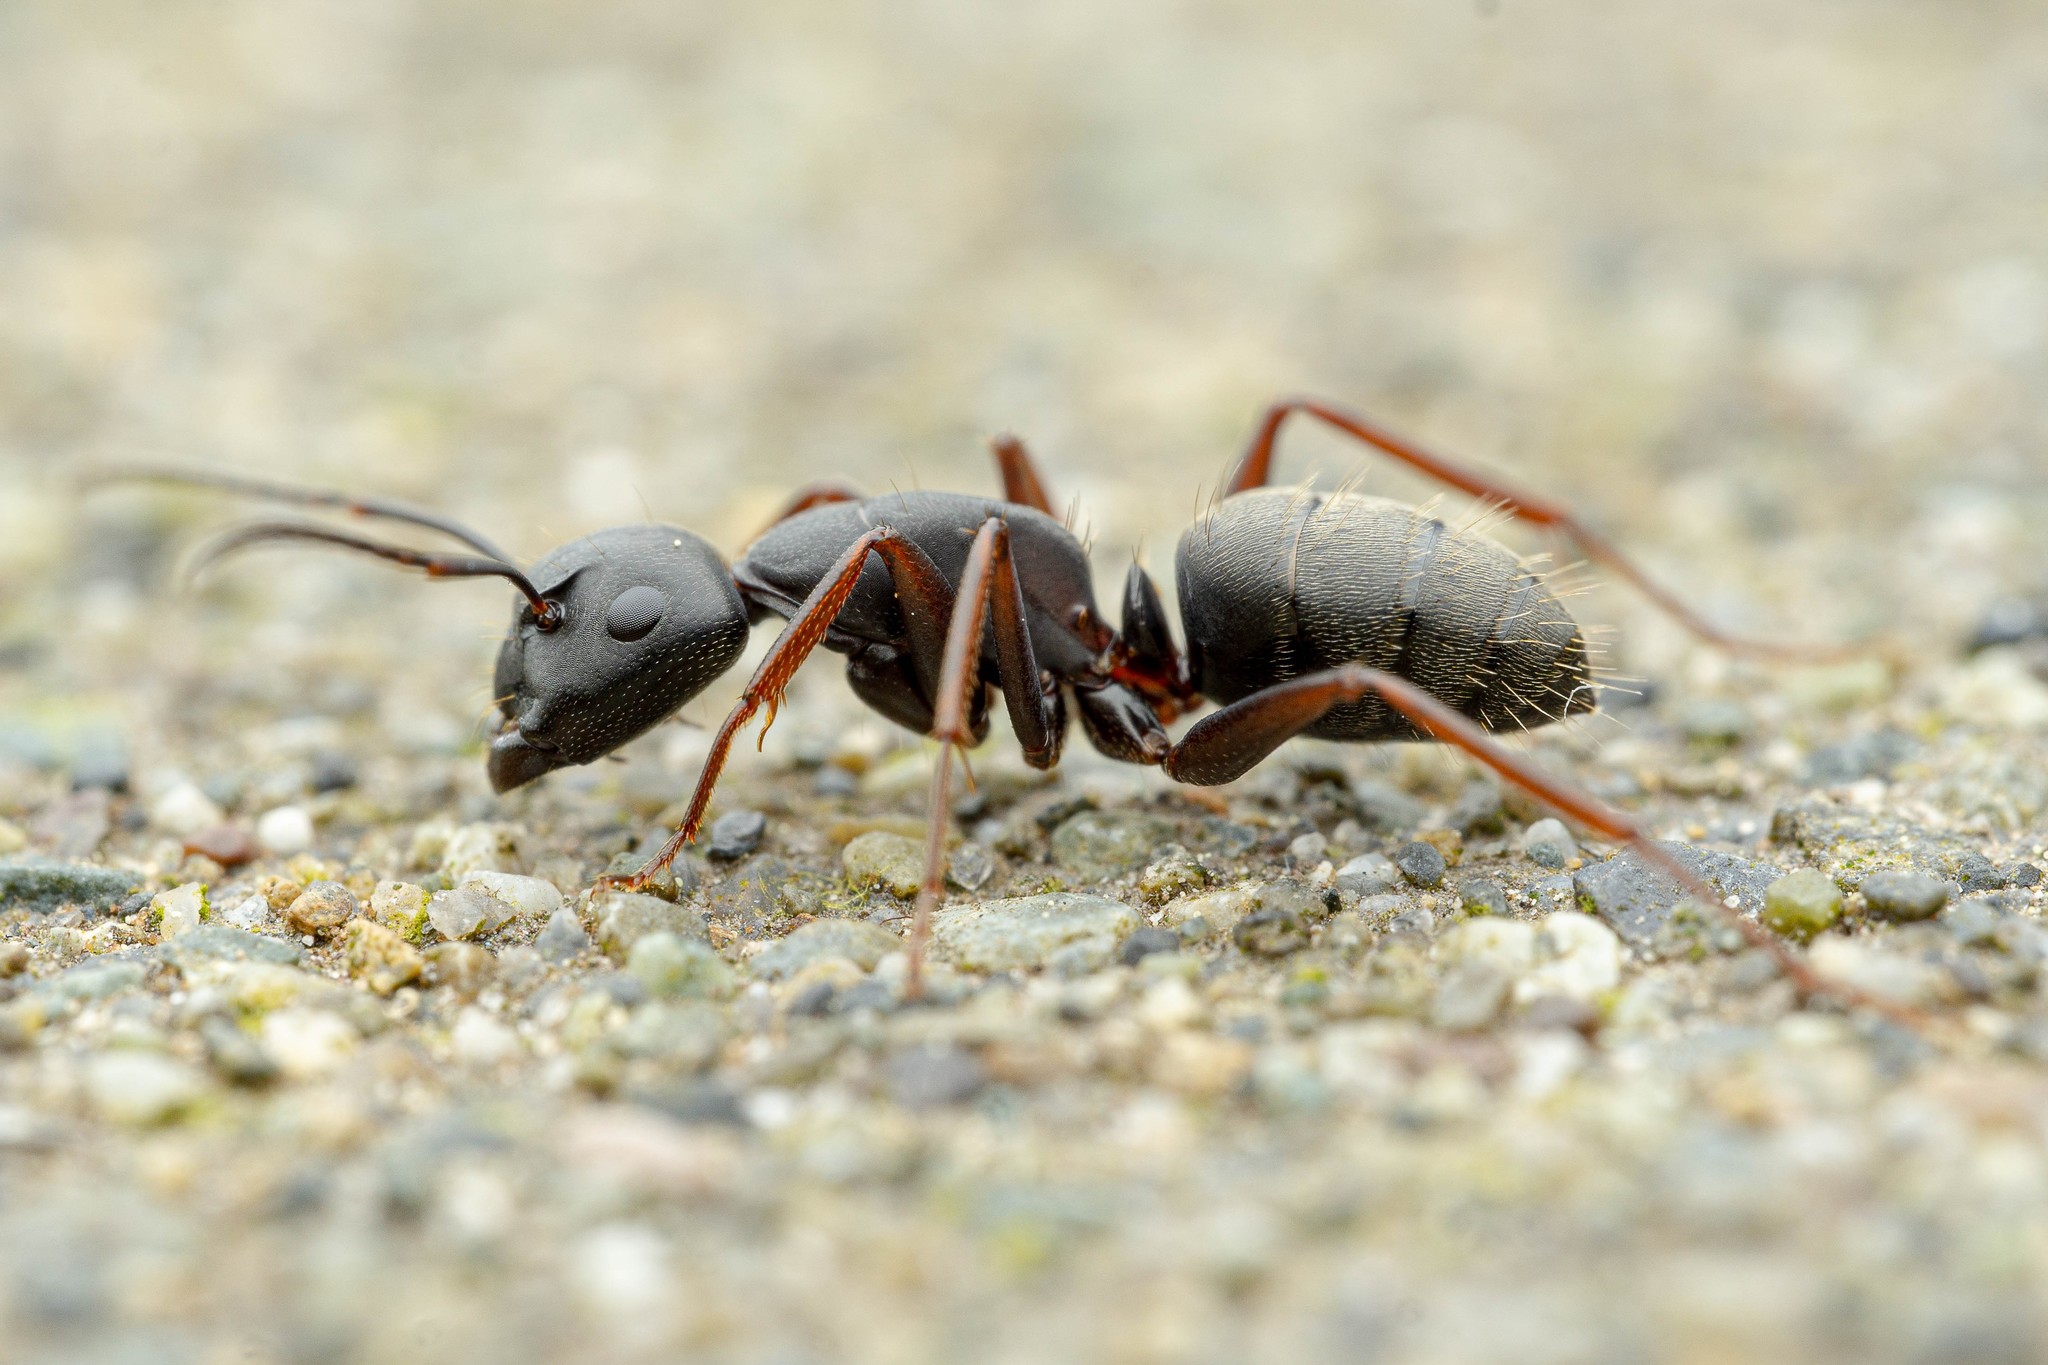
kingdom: Animalia
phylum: Arthropoda
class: Insecta
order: Hymenoptera
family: Formicidae
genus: Camponotus
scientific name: Camponotus modoc
